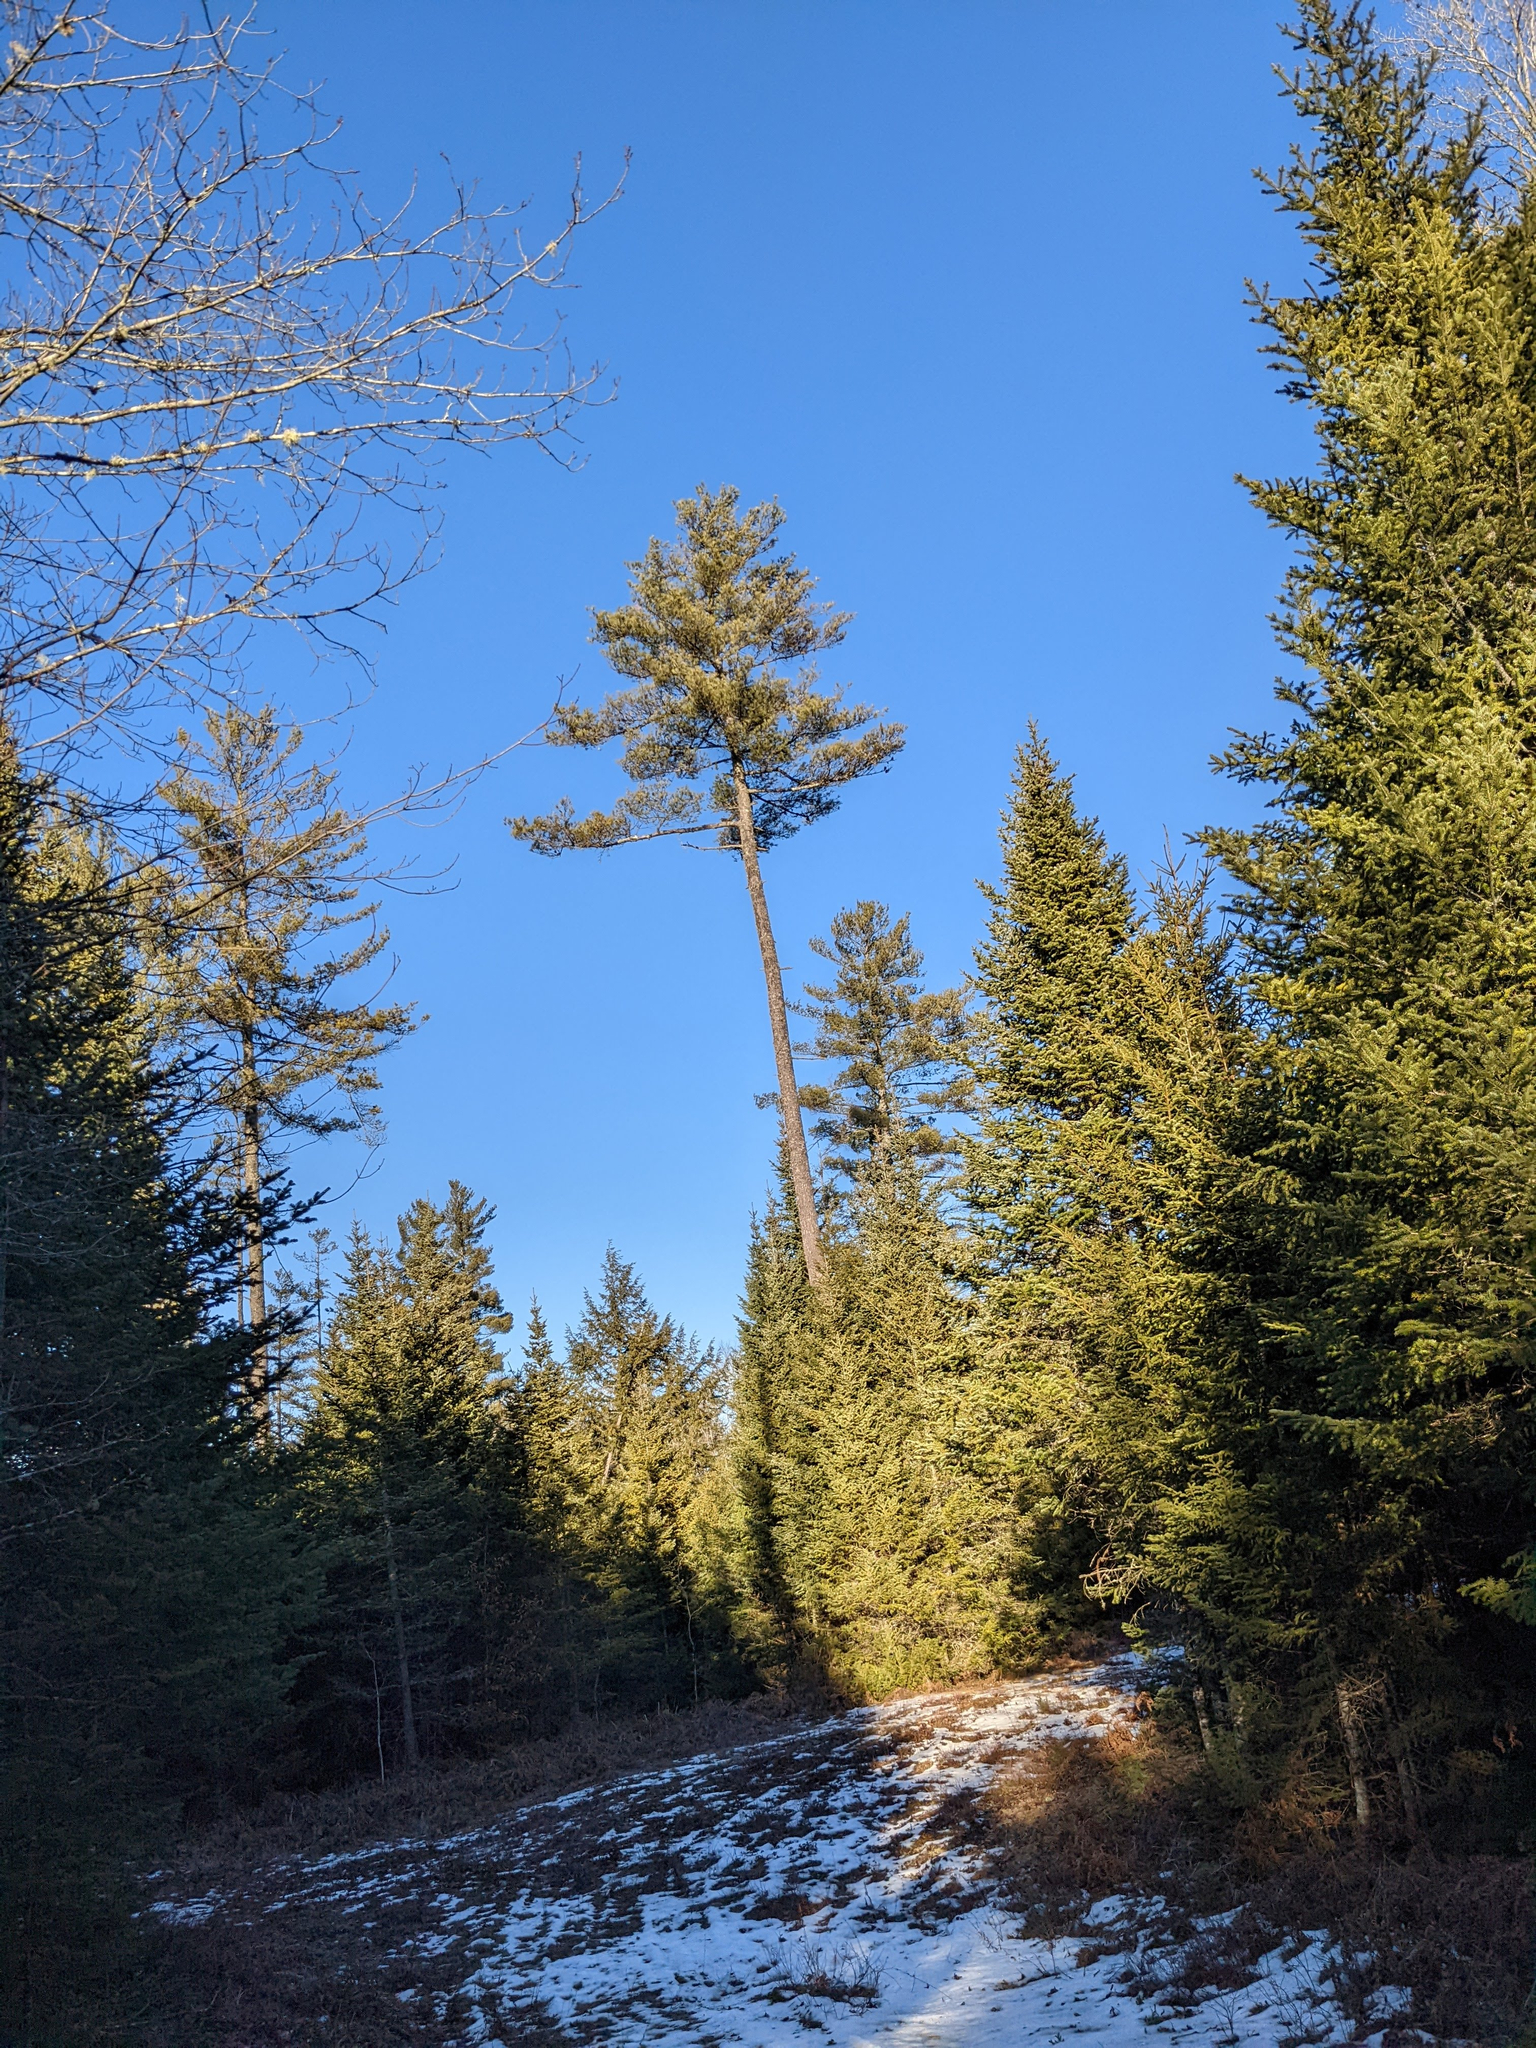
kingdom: Plantae
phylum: Tracheophyta
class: Pinopsida
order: Pinales
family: Pinaceae
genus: Pinus
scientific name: Pinus strobus
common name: Weymouth pine
